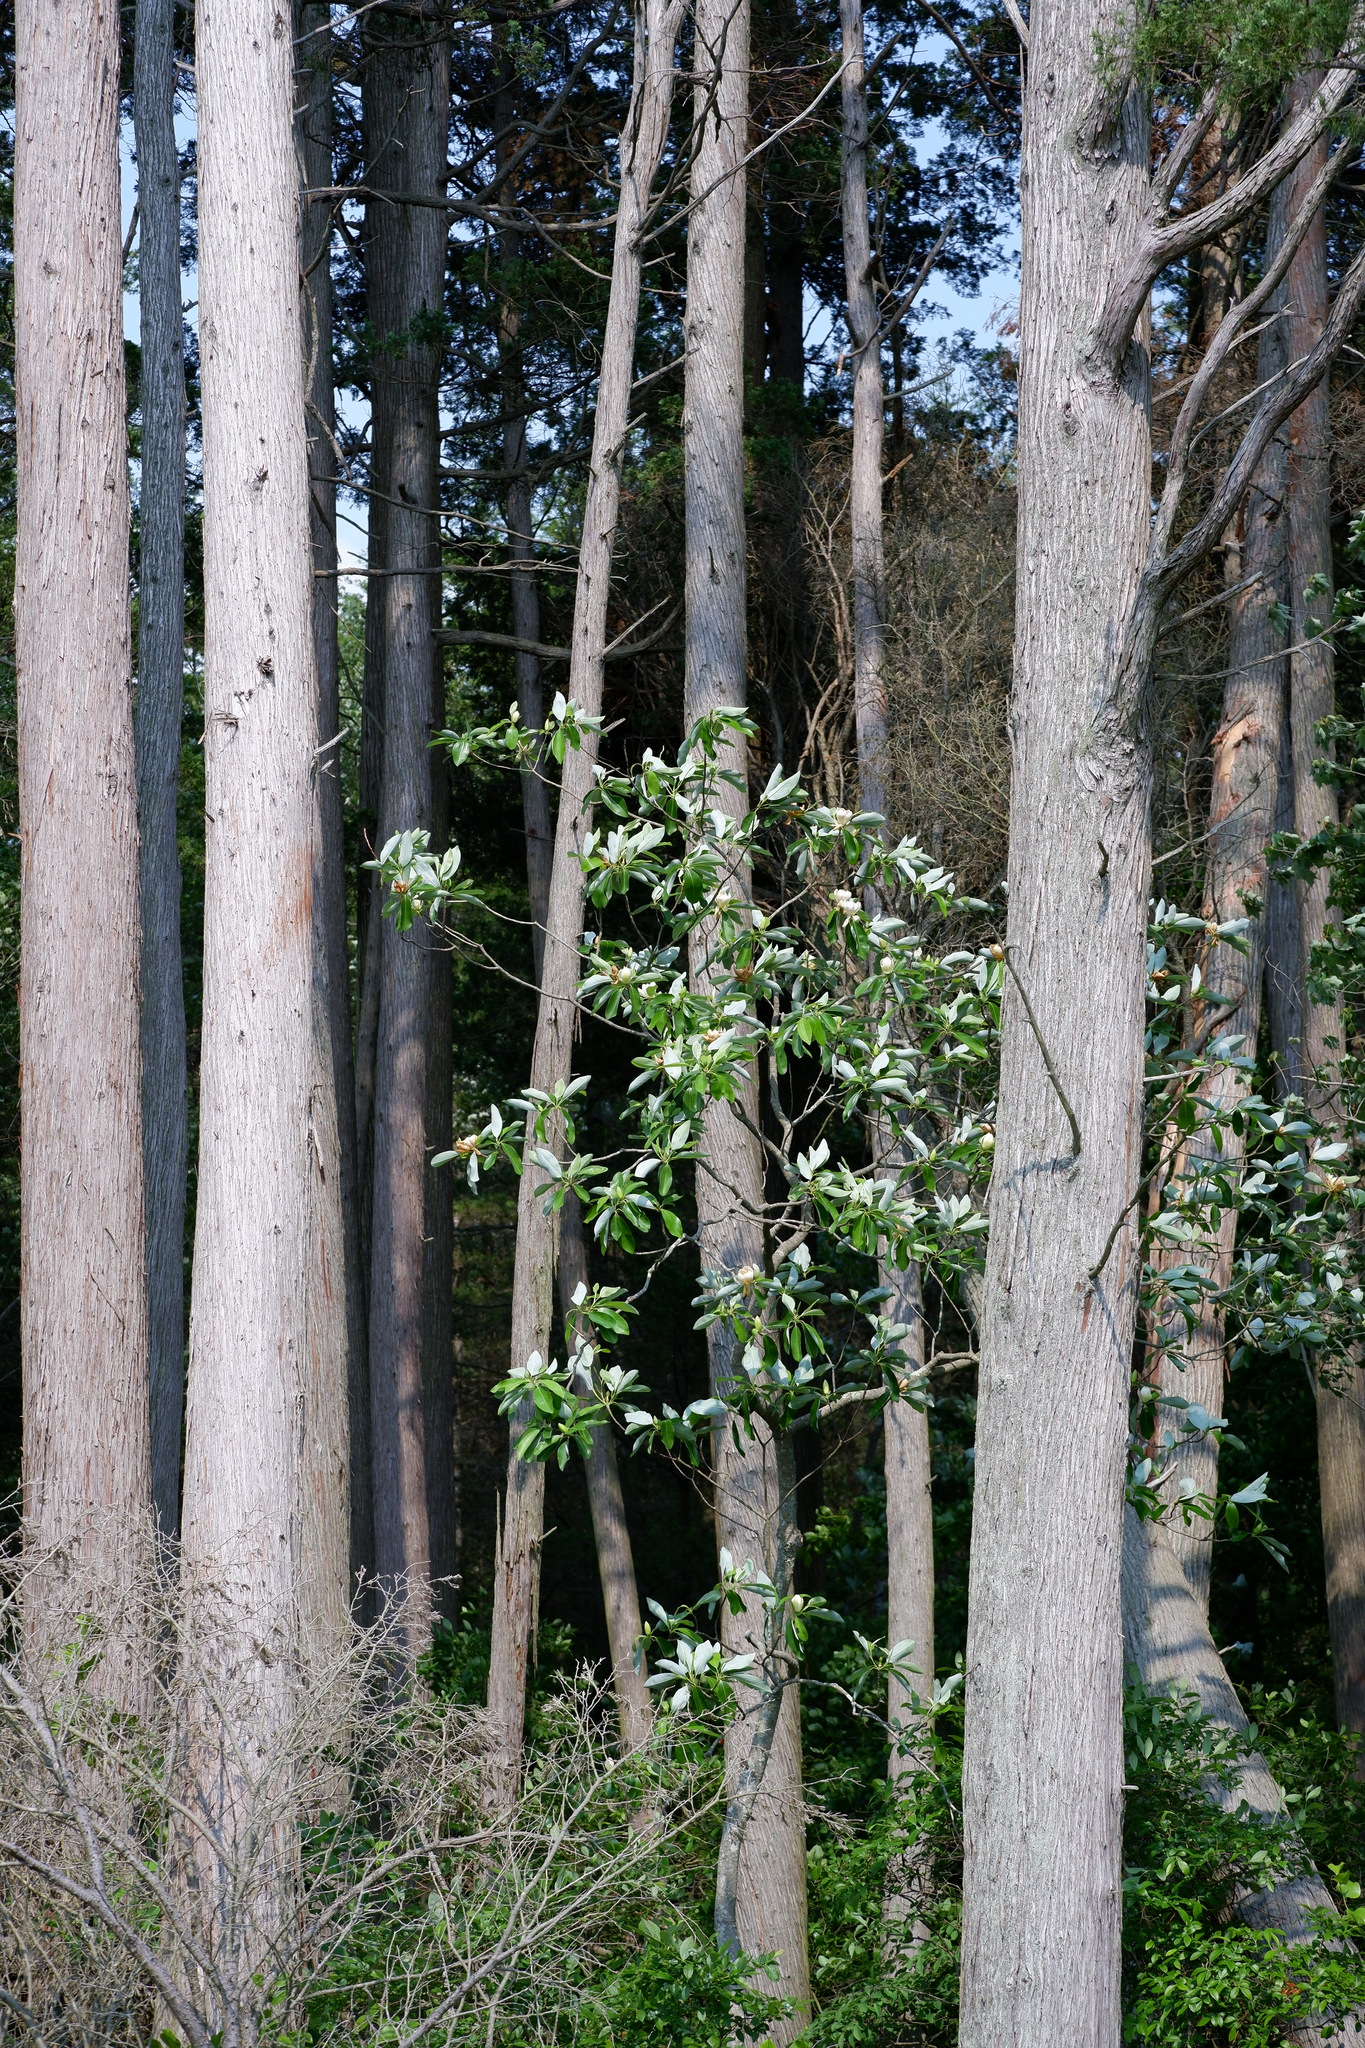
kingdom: Plantae
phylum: Tracheophyta
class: Magnoliopsida
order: Magnoliales
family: Magnoliaceae
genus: Magnolia
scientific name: Magnolia virginiana
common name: Swamp bay
